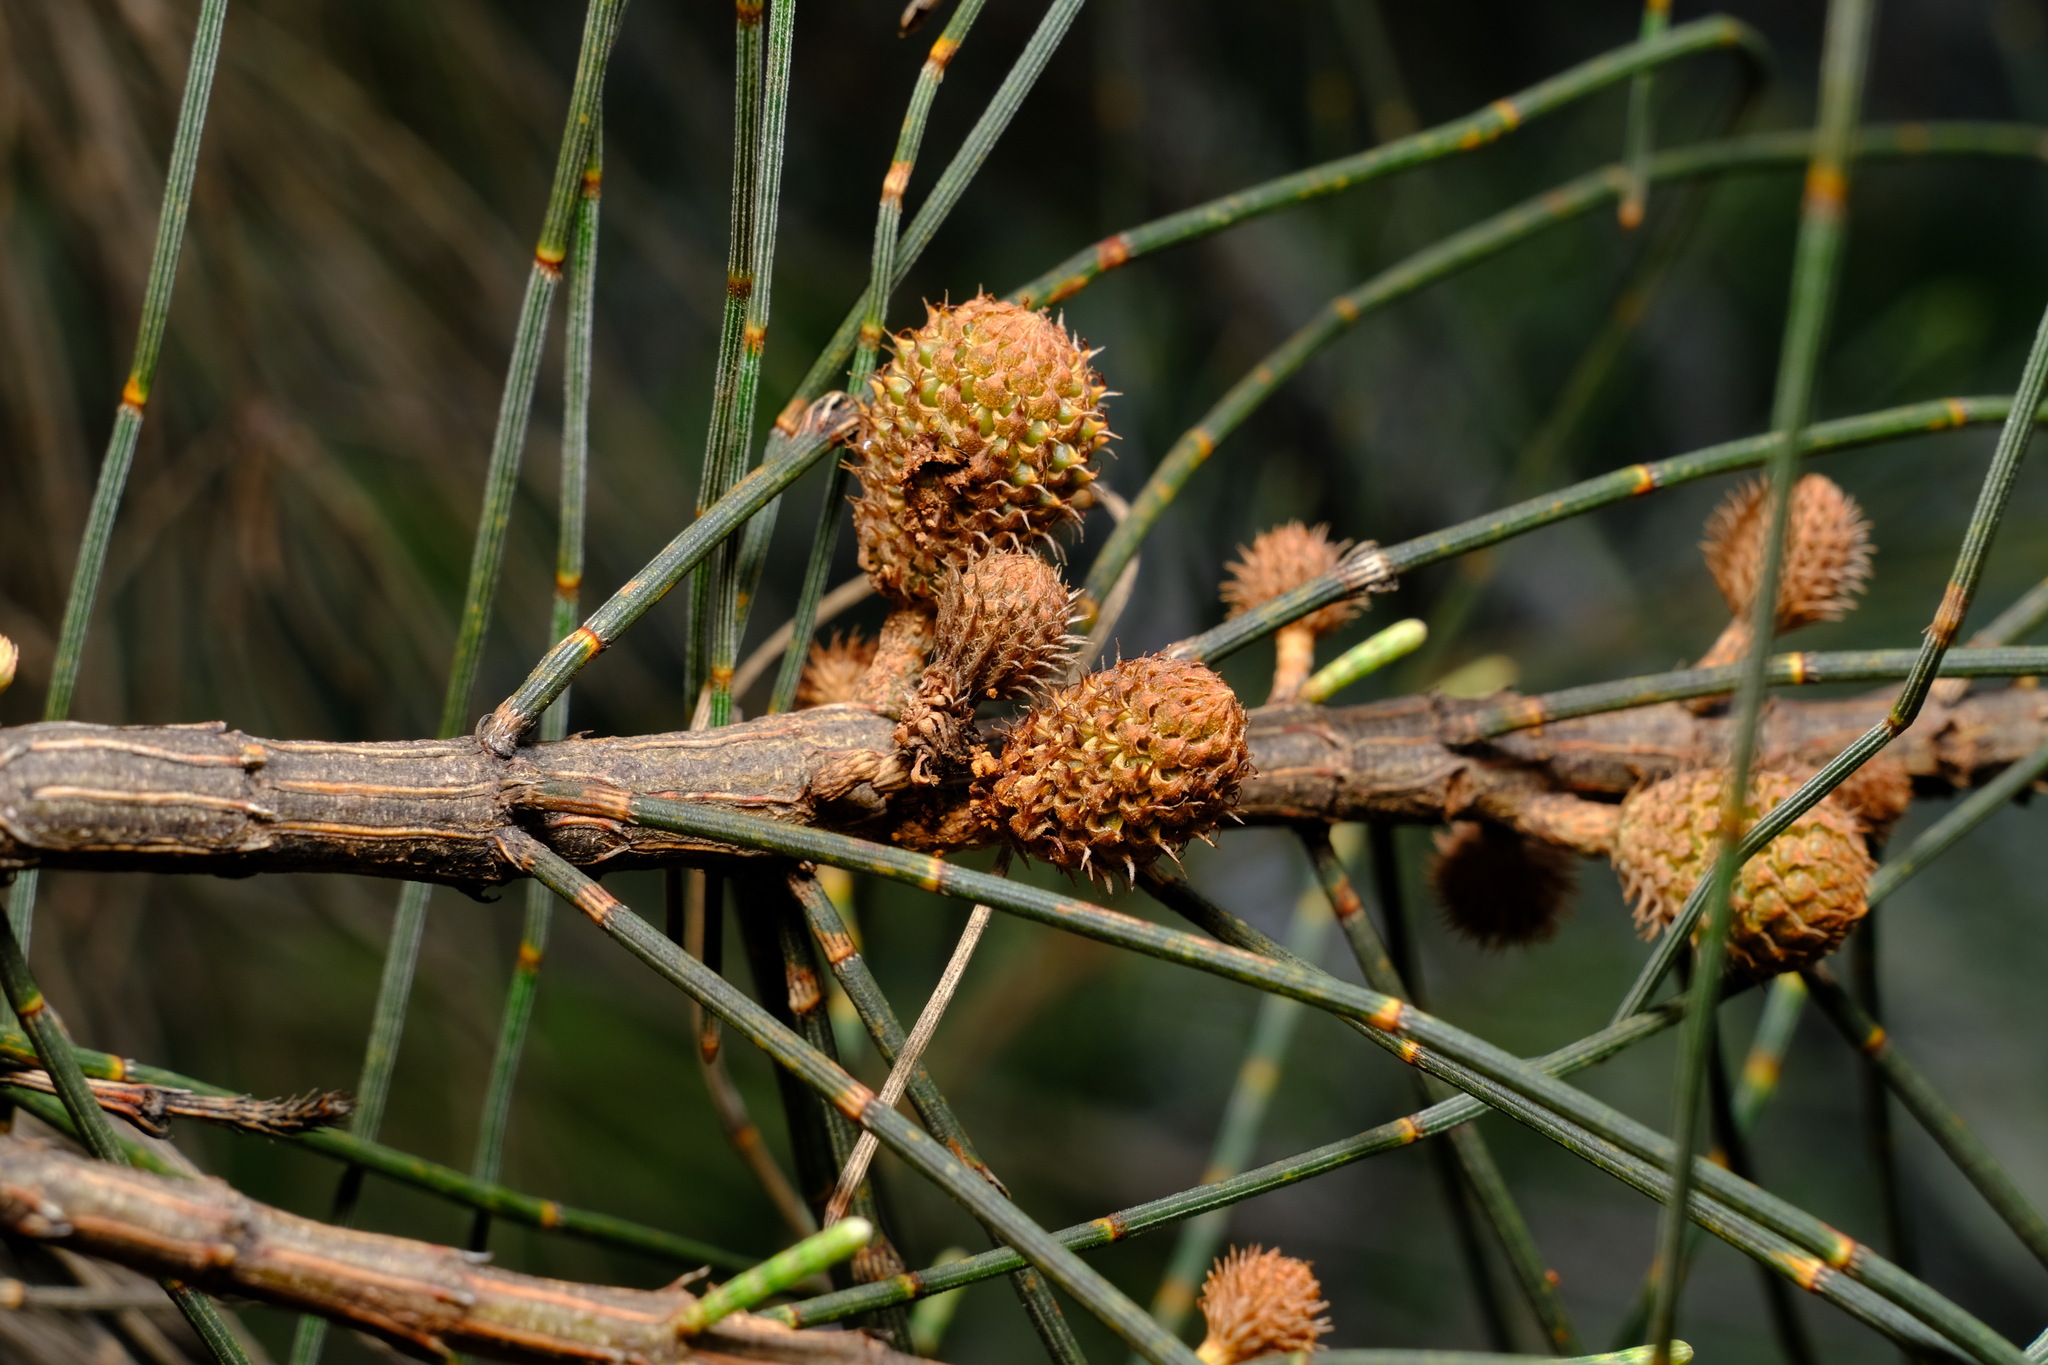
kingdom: Plantae
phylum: Tracheophyta
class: Magnoliopsida
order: Fagales
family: Casuarinaceae
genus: Allocasuarina
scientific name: Allocasuarina verticillata
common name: Drooping she-oak
